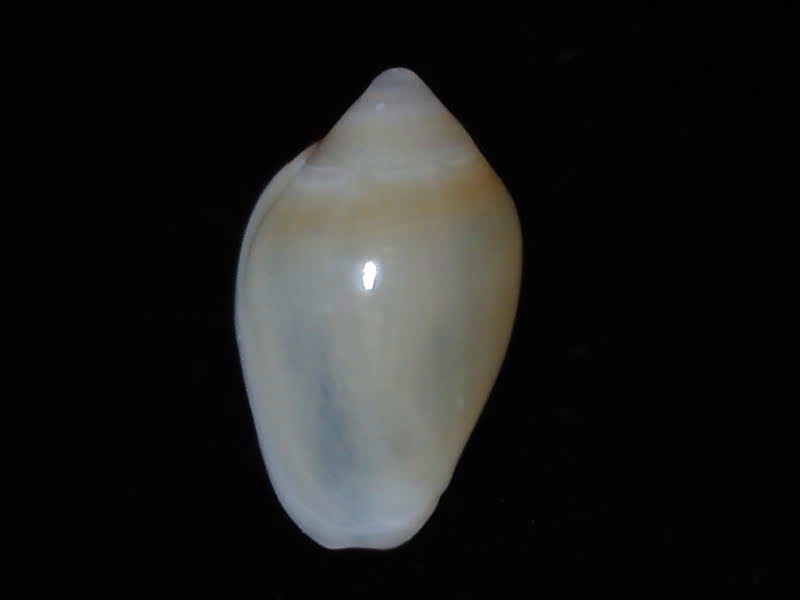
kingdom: Animalia
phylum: Mollusca
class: Gastropoda
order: Neogastropoda
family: Marginellidae
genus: Mesoginella
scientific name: Mesoginella
